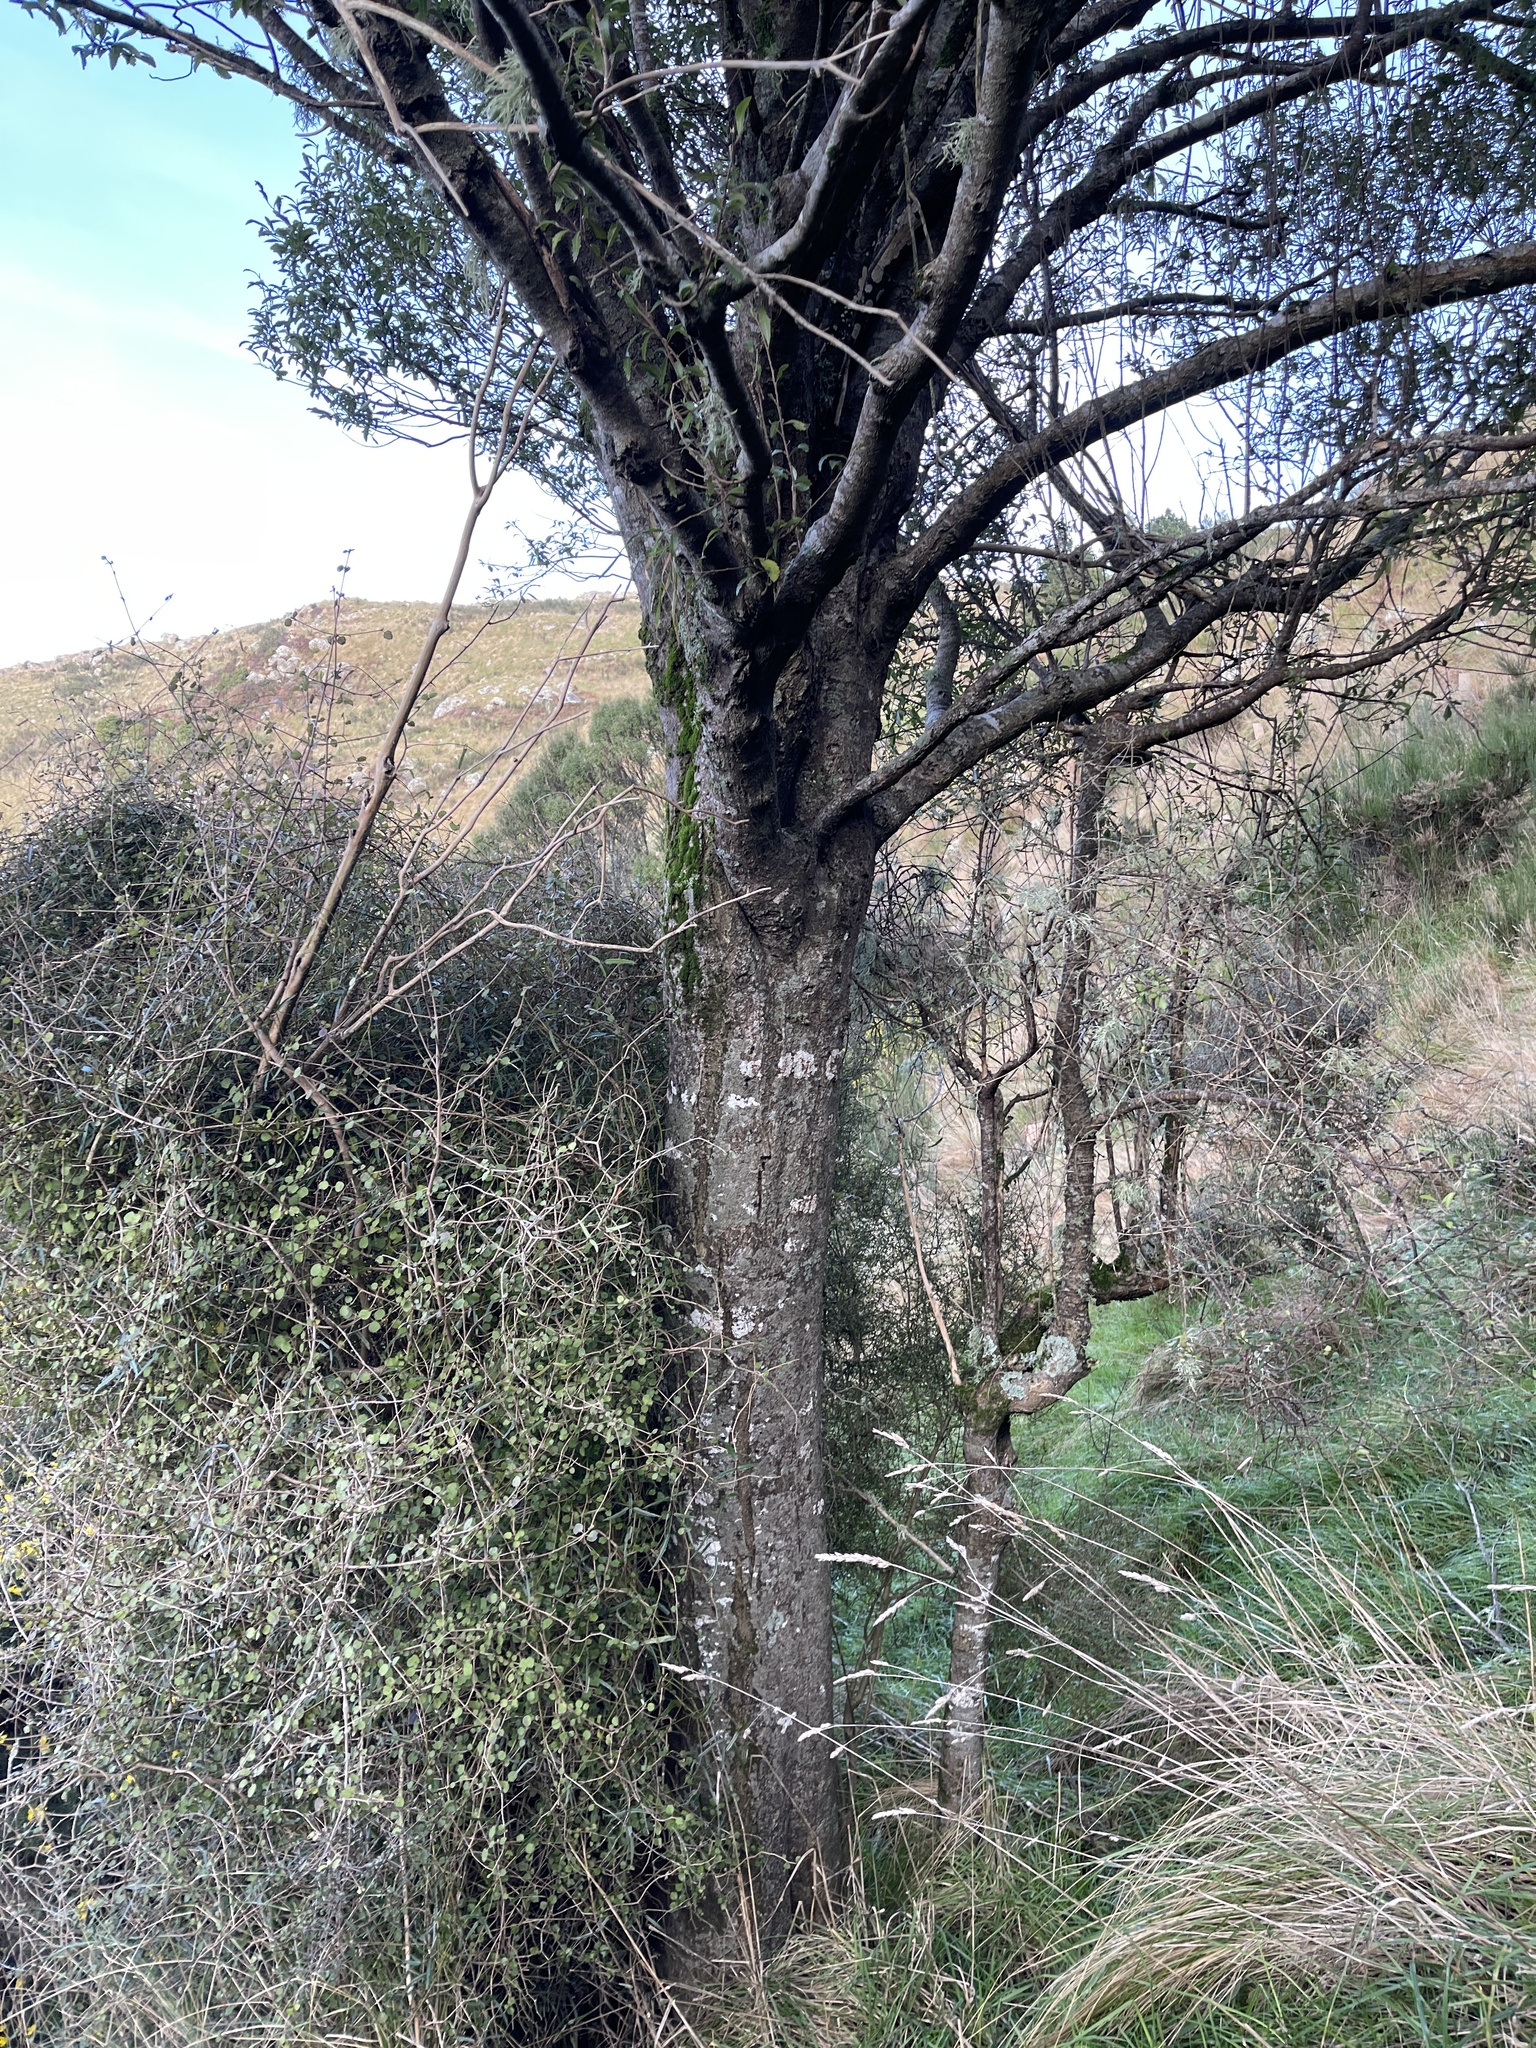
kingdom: Plantae
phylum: Tracheophyta
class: Magnoliopsida
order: Malvales
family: Malvaceae
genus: Hoheria
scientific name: Hoheria angustifolia
